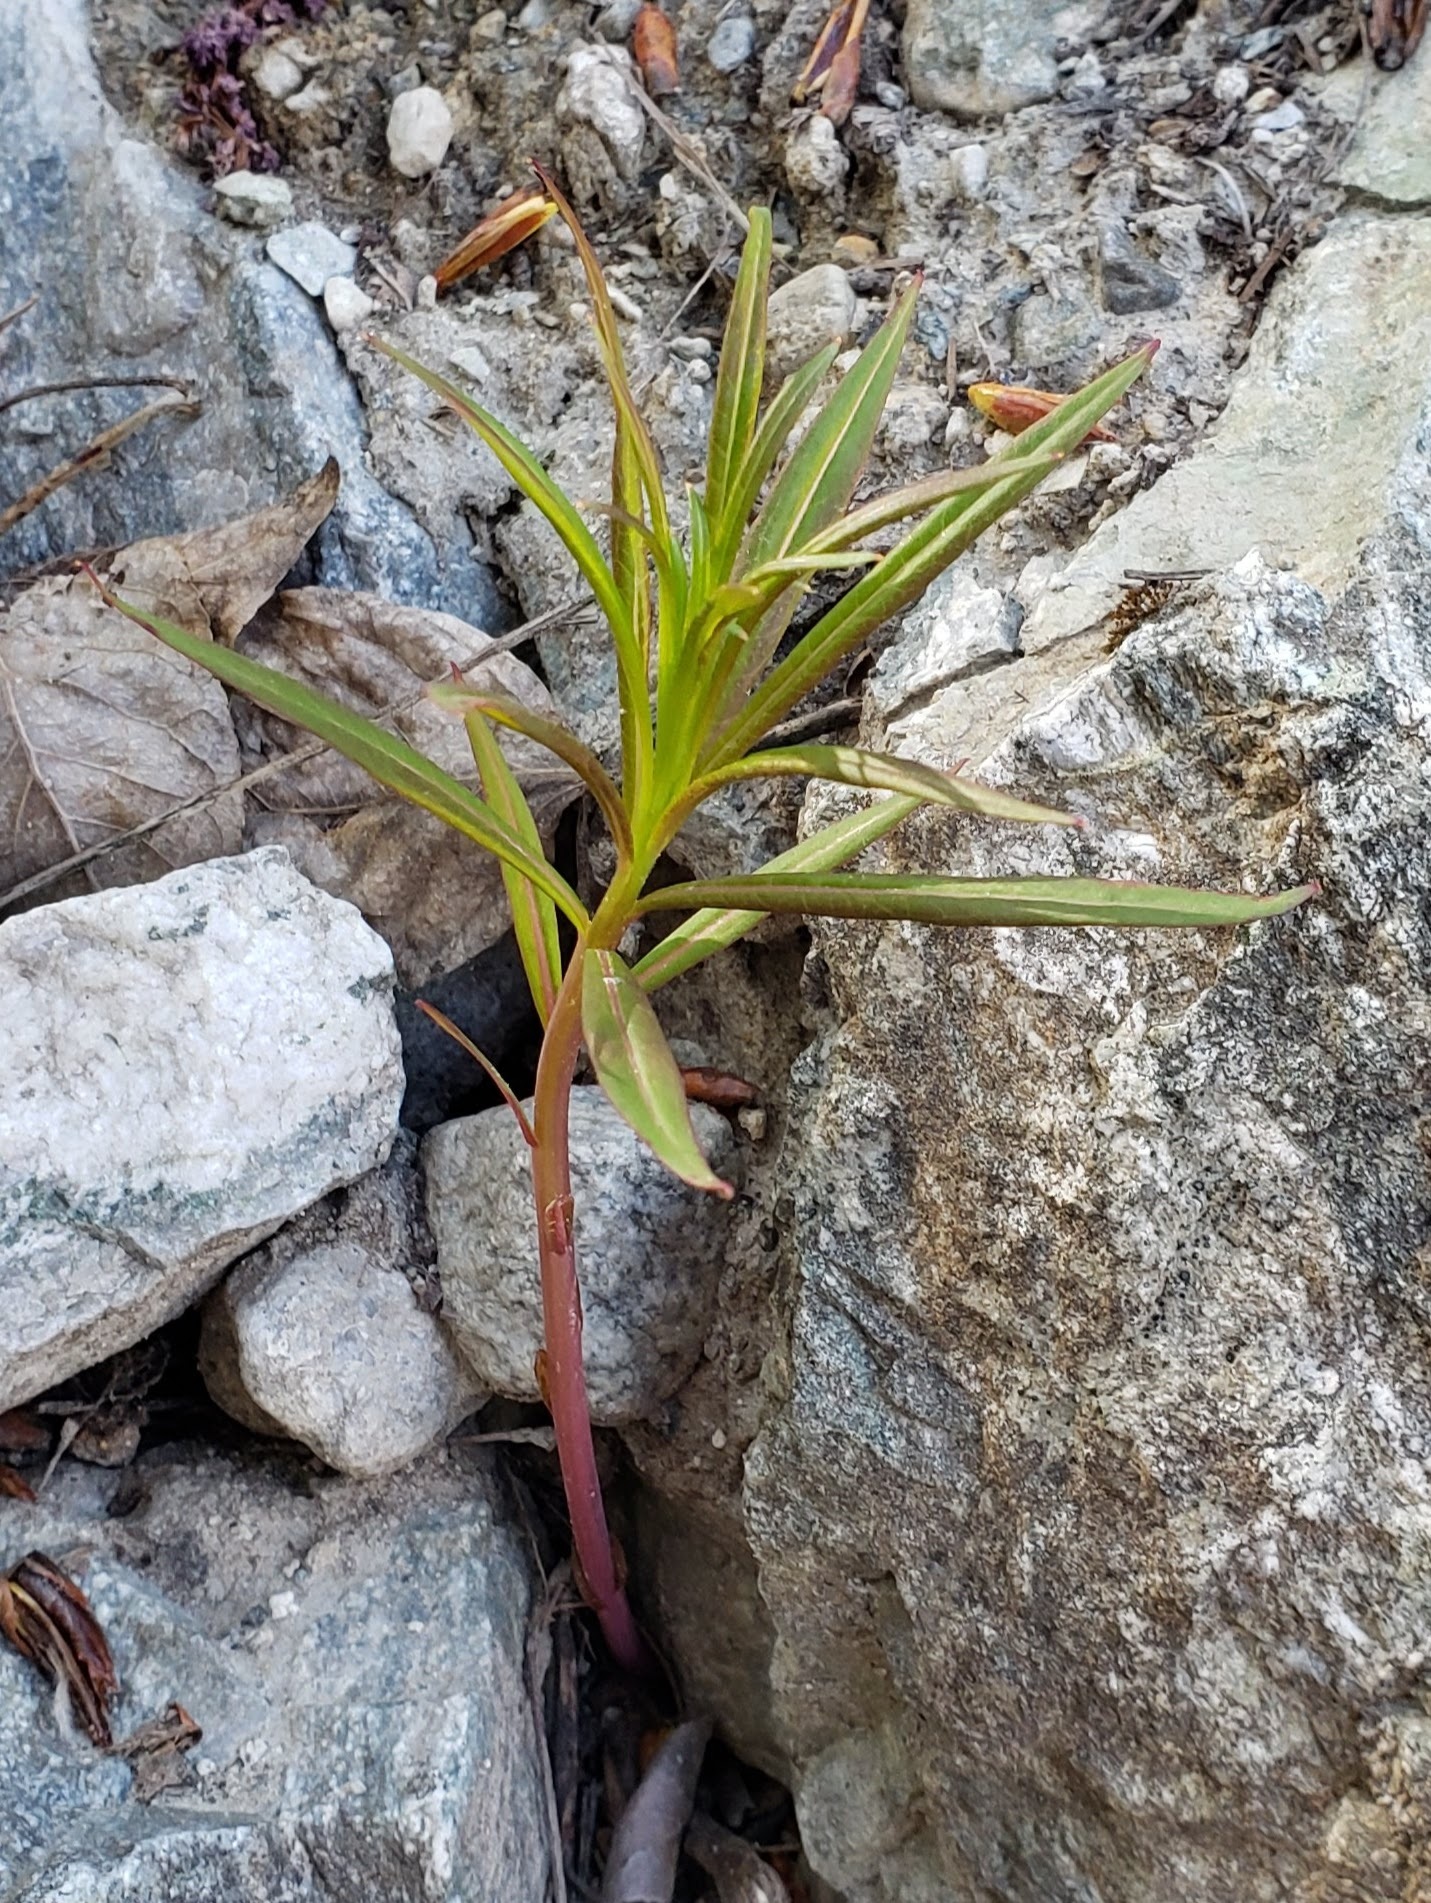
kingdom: Plantae
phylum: Tracheophyta
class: Magnoliopsida
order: Myrtales
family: Onagraceae
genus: Chamaenerion
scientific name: Chamaenerion angustifolium
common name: Fireweed
